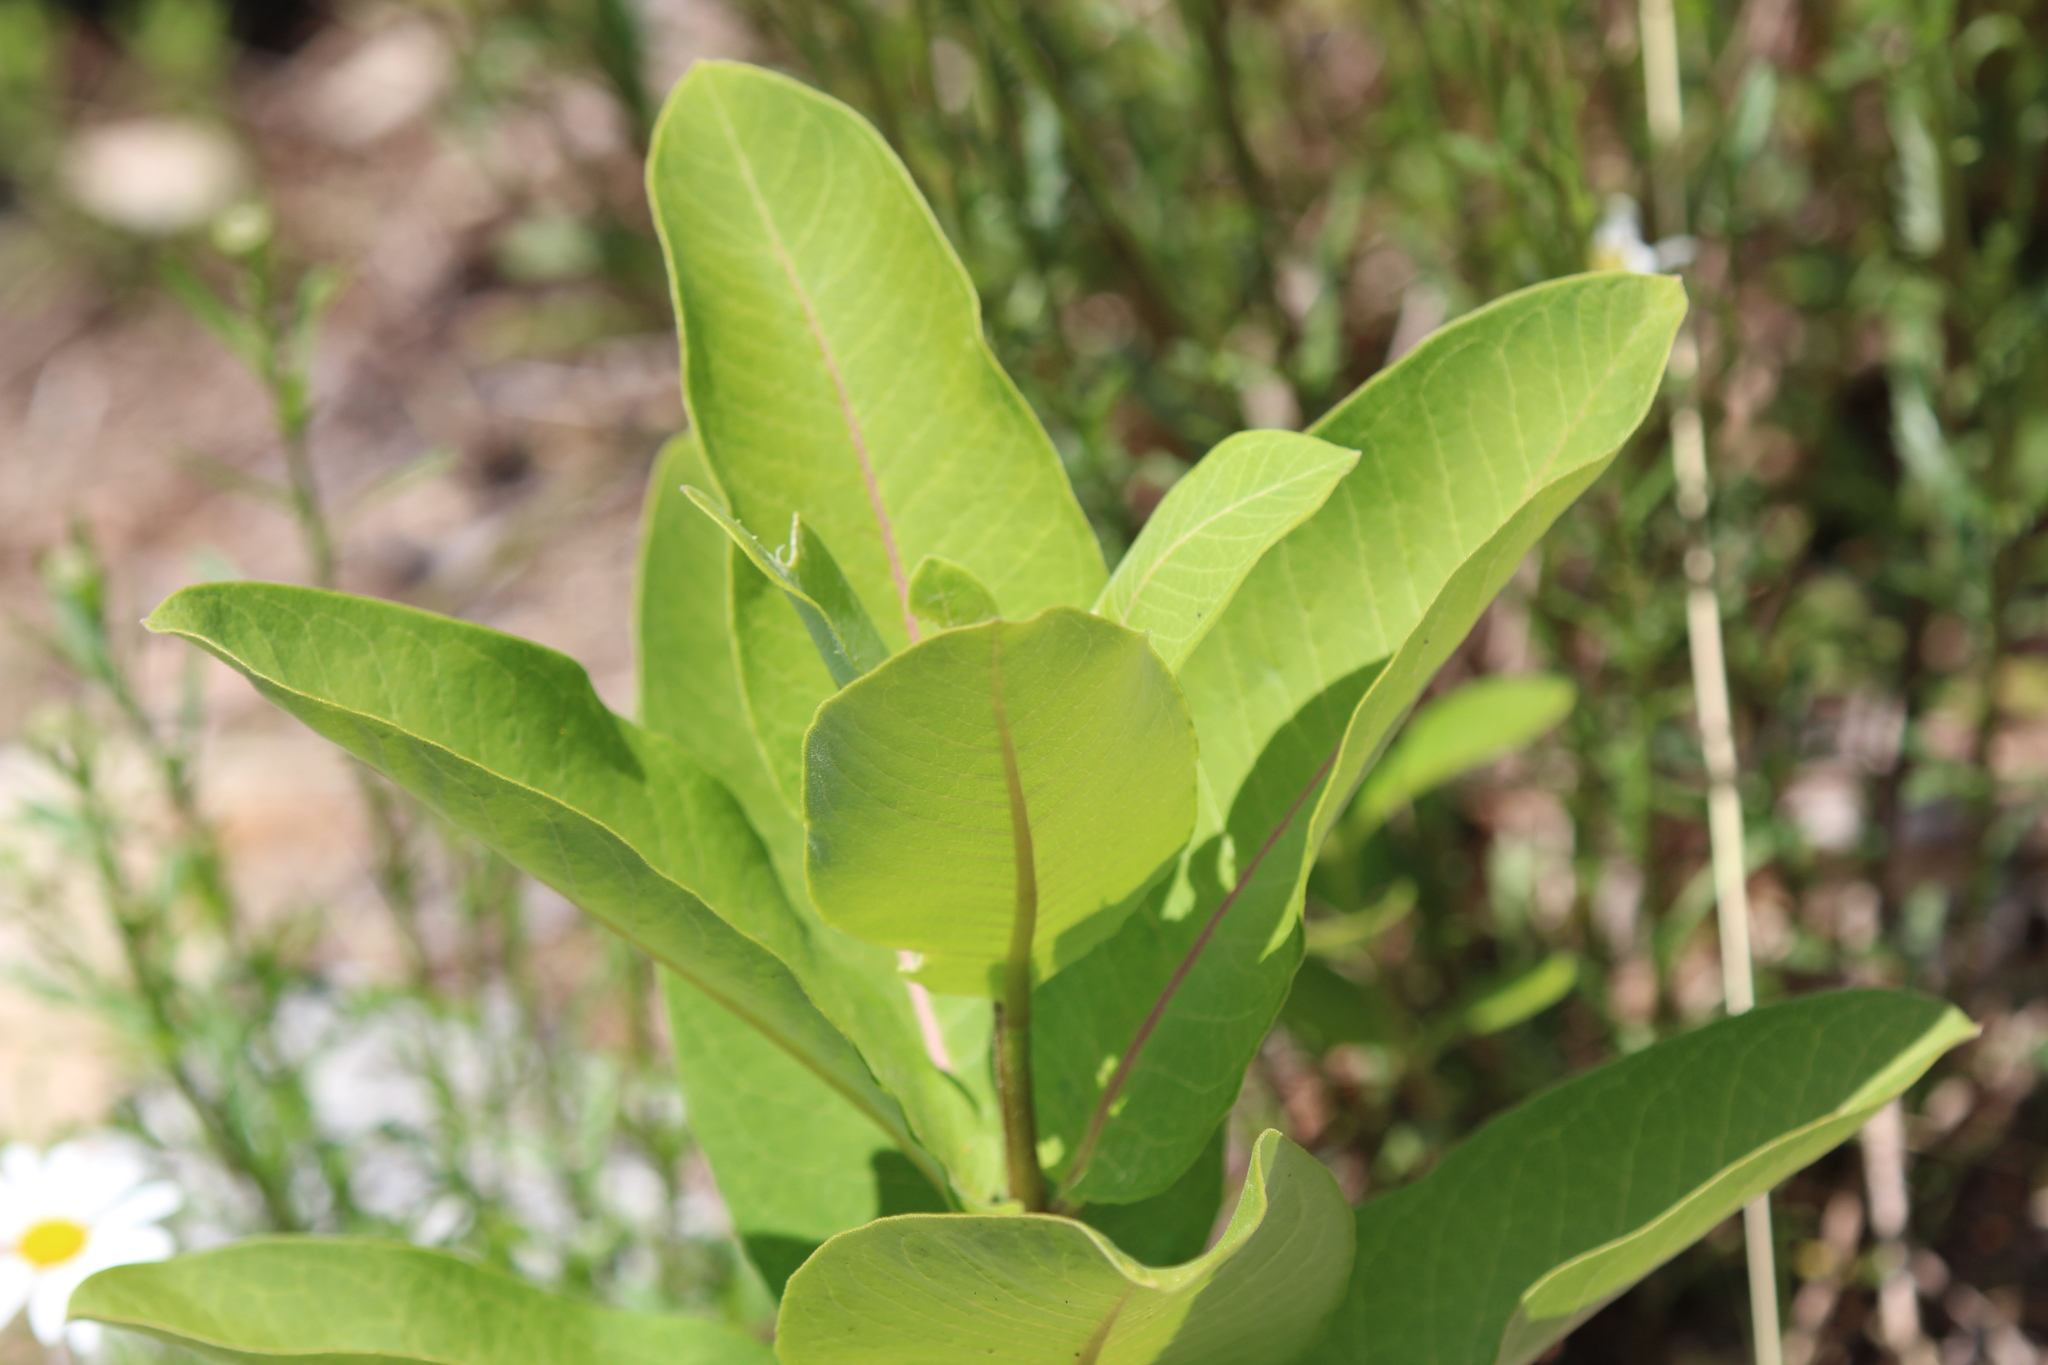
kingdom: Plantae
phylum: Tracheophyta
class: Magnoliopsida
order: Gentianales
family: Apocynaceae
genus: Asclepias
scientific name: Asclepias syriaca
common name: Common milkweed
